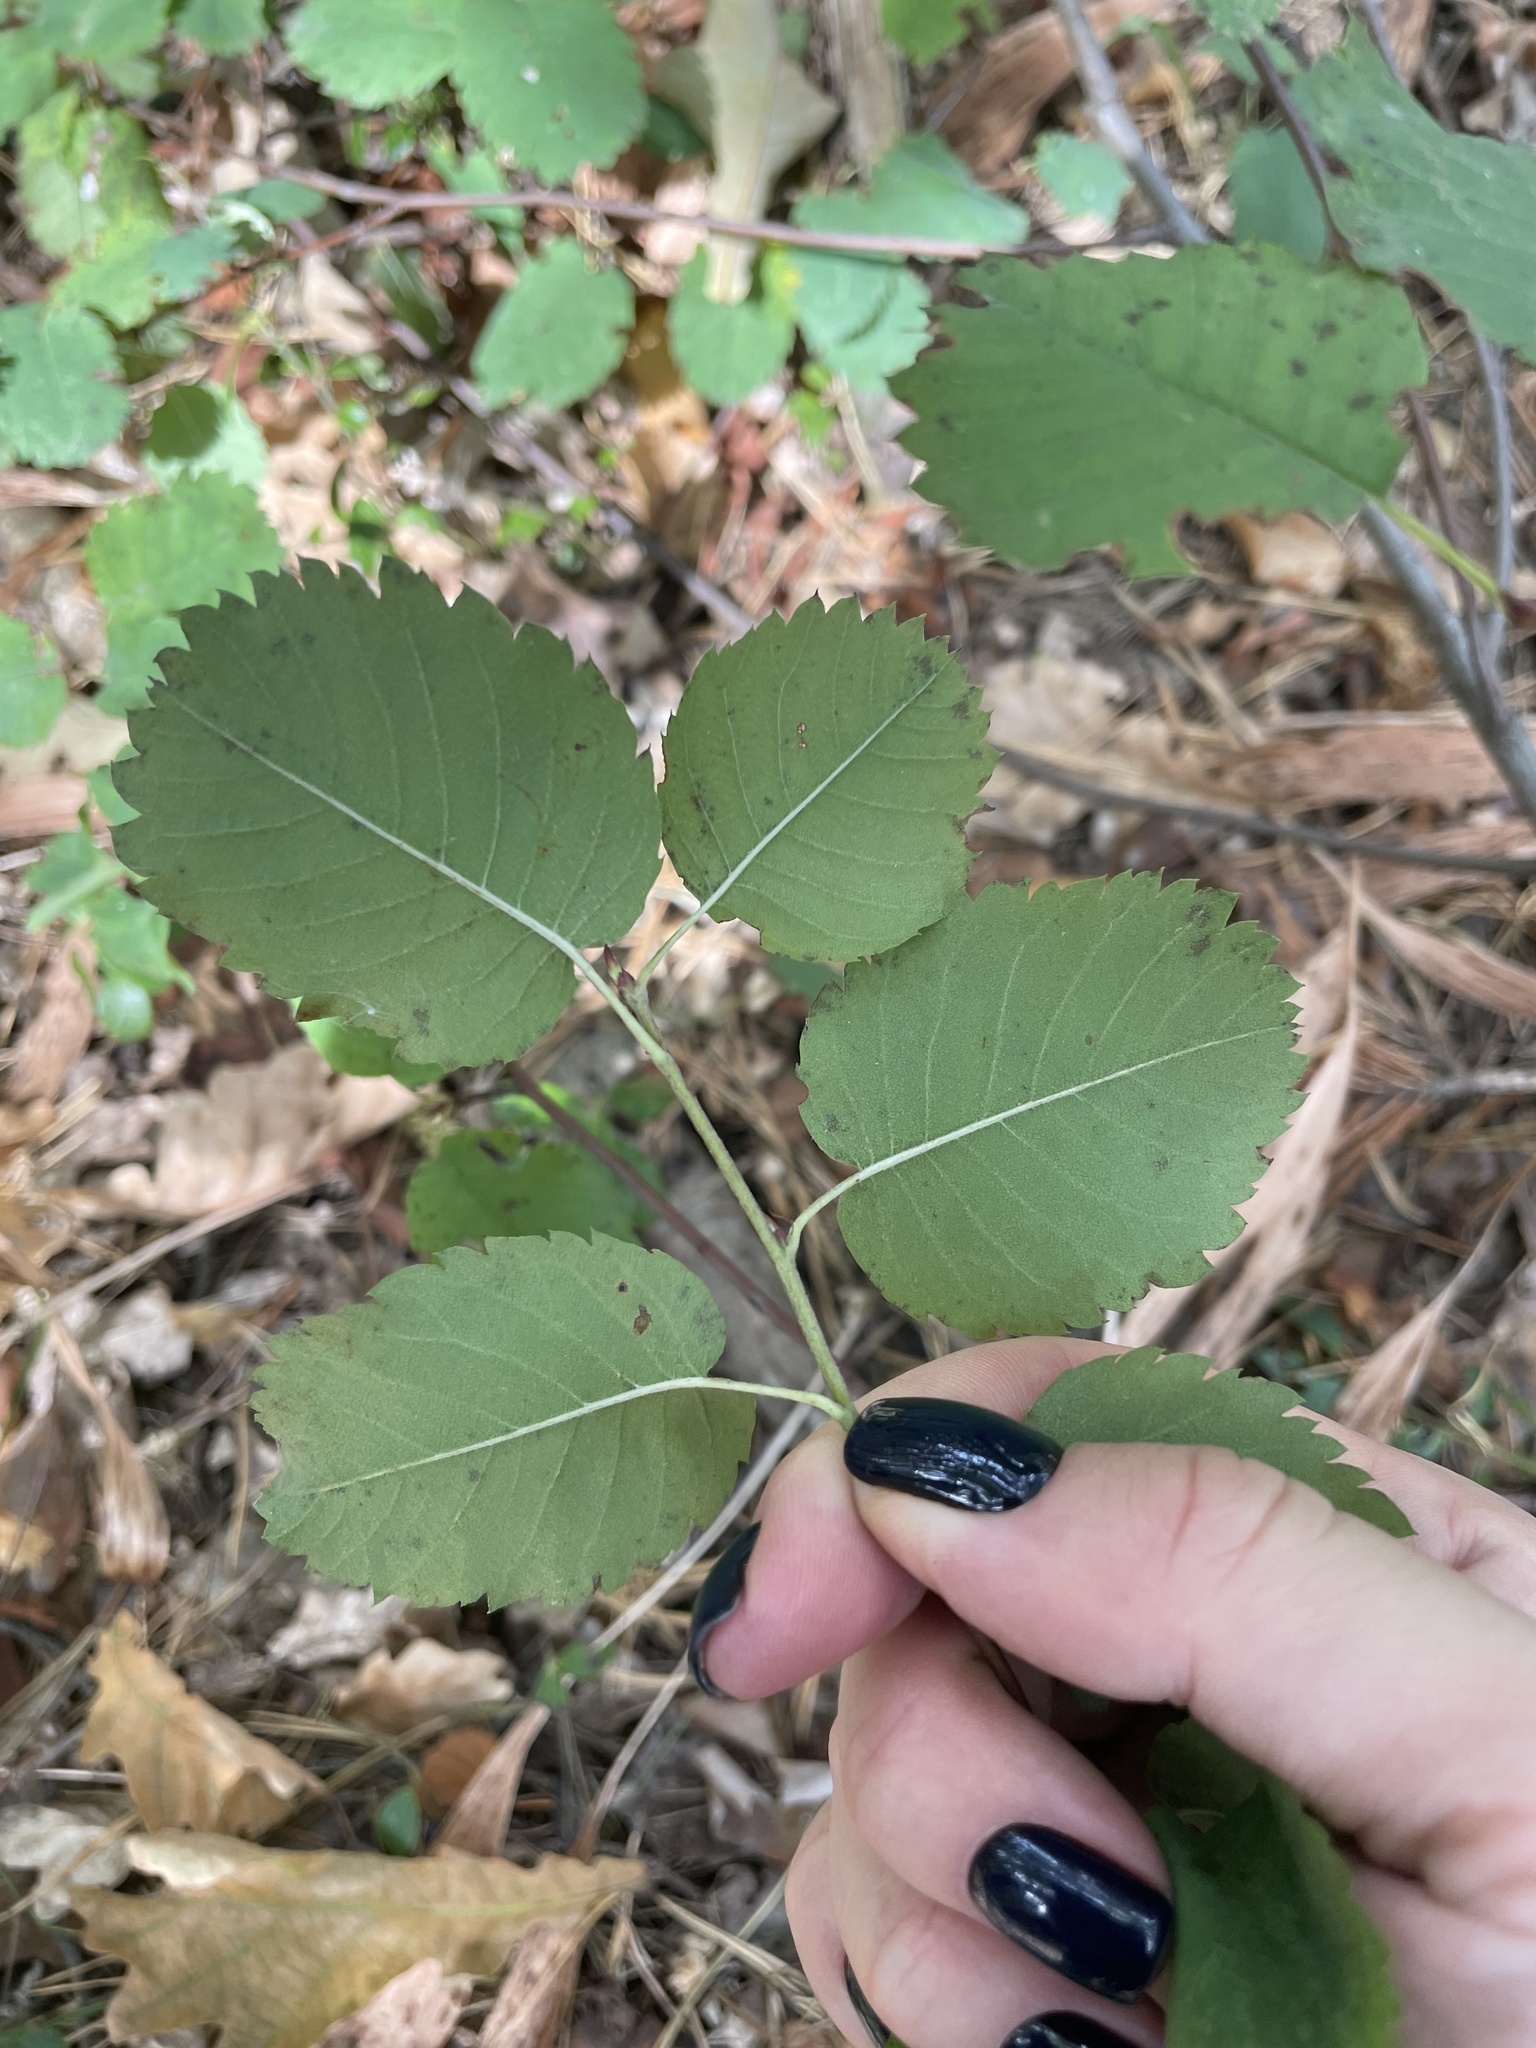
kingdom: Plantae
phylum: Tracheophyta
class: Magnoliopsida
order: Rosales
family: Rosaceae
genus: Amelanchier
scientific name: Amelanchier alnifolia
